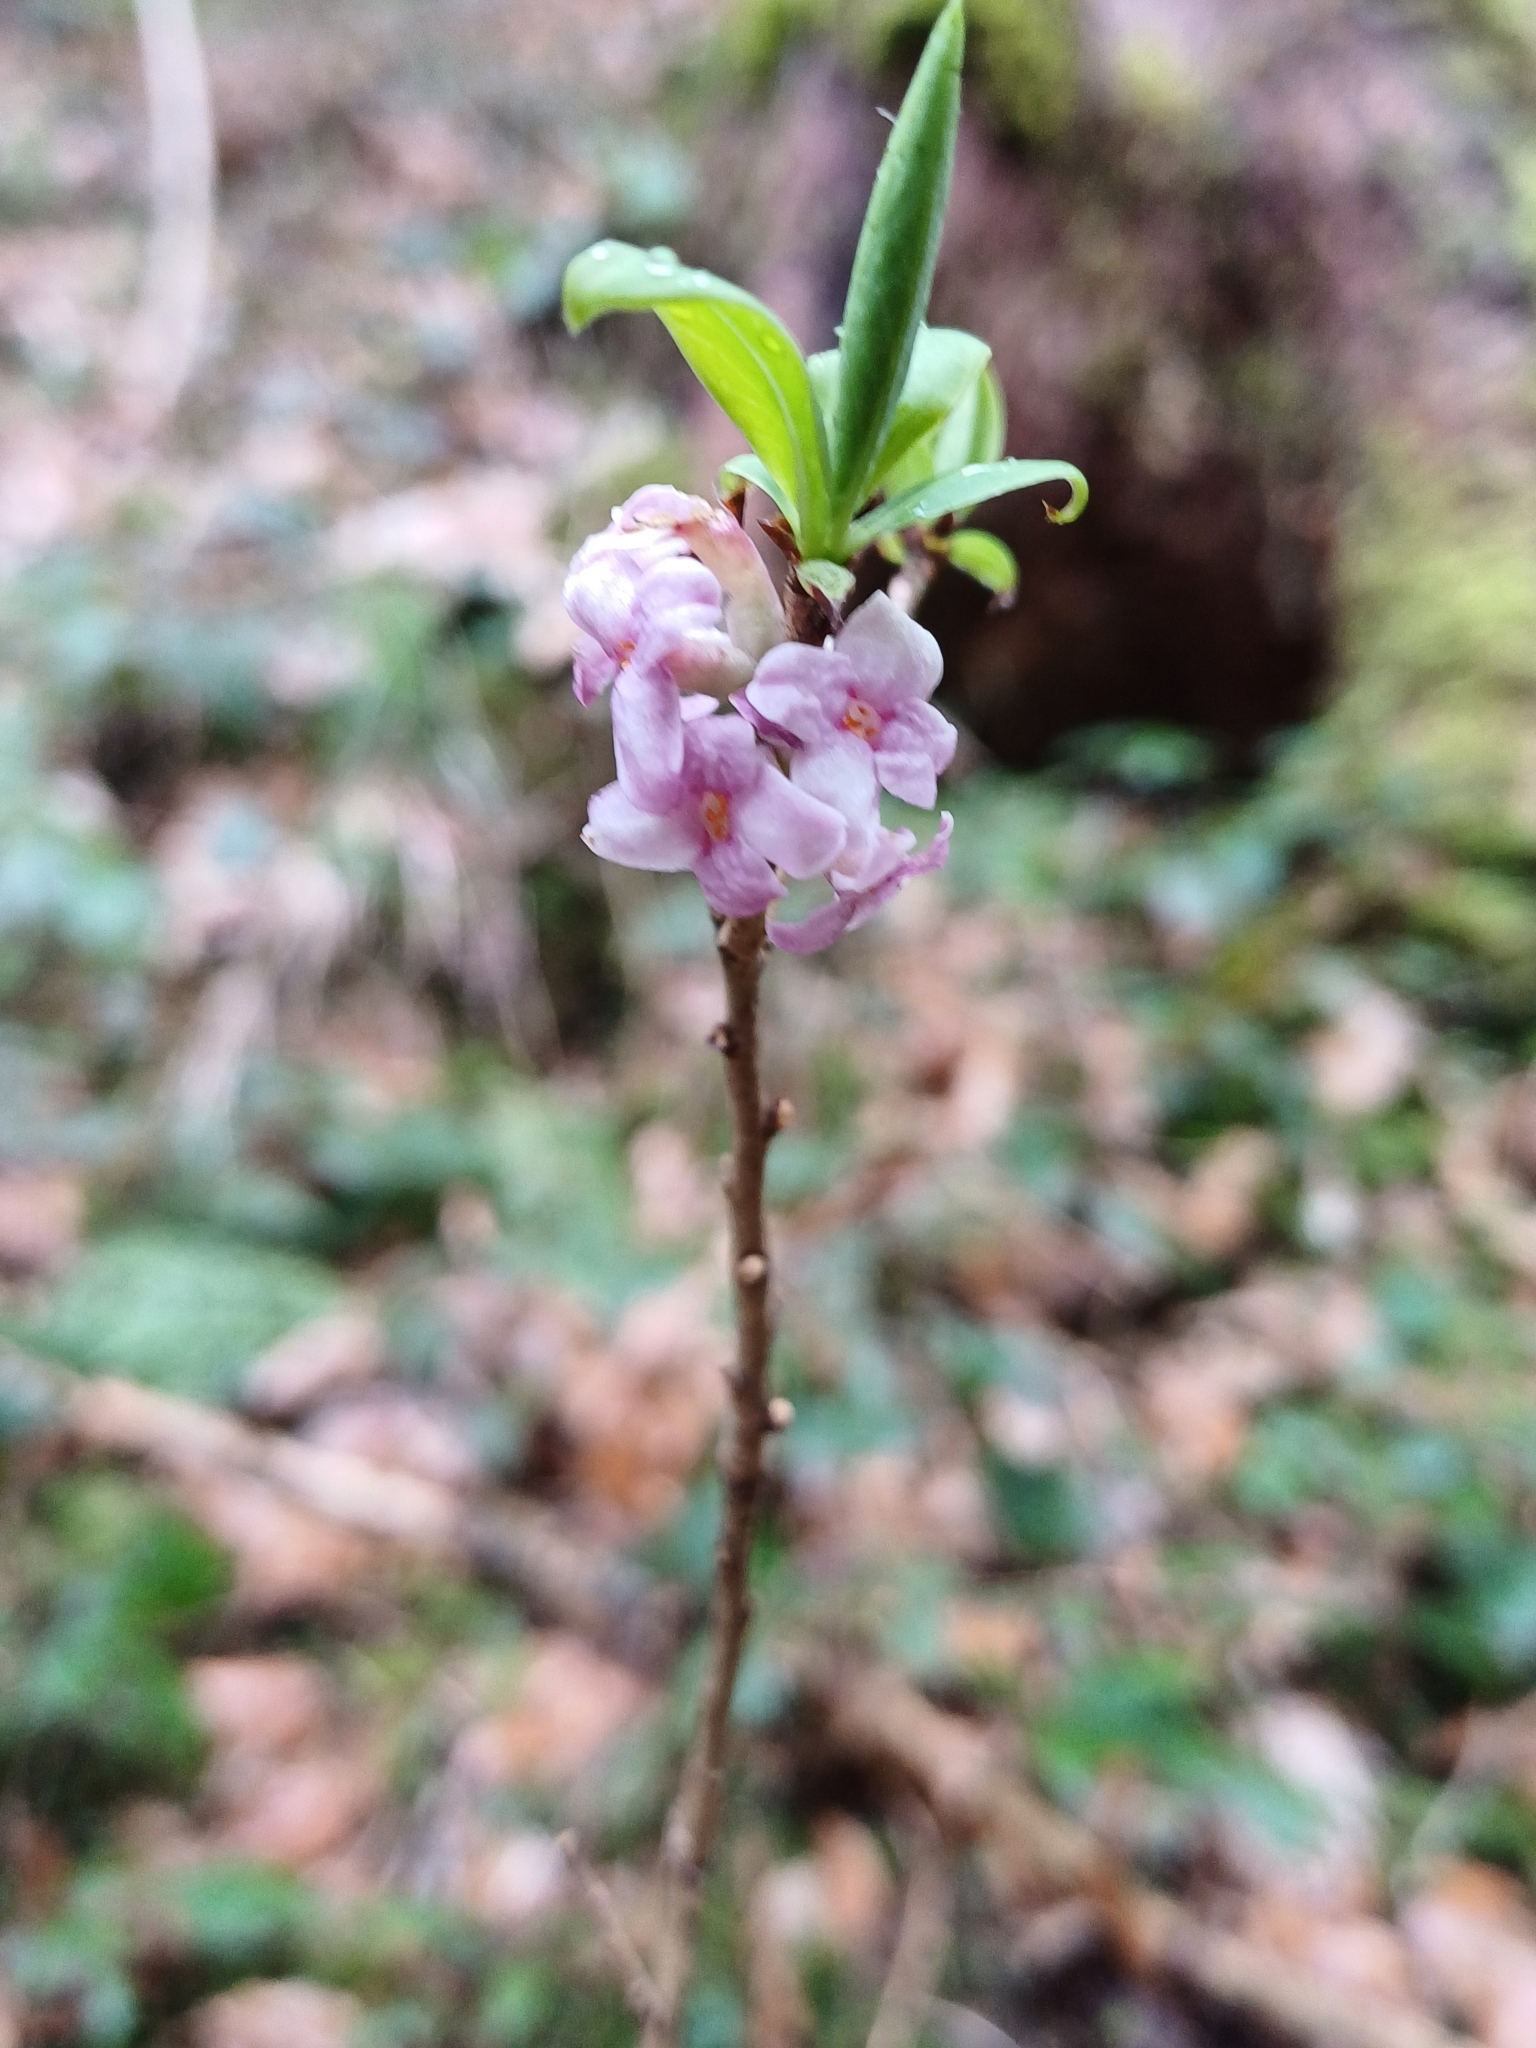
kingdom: Plantae
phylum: Tracheophyta
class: Magnoliopsida
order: Malvales
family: Thymelaeaceae
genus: Daphne
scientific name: Daphne mezereum
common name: Mezereon
